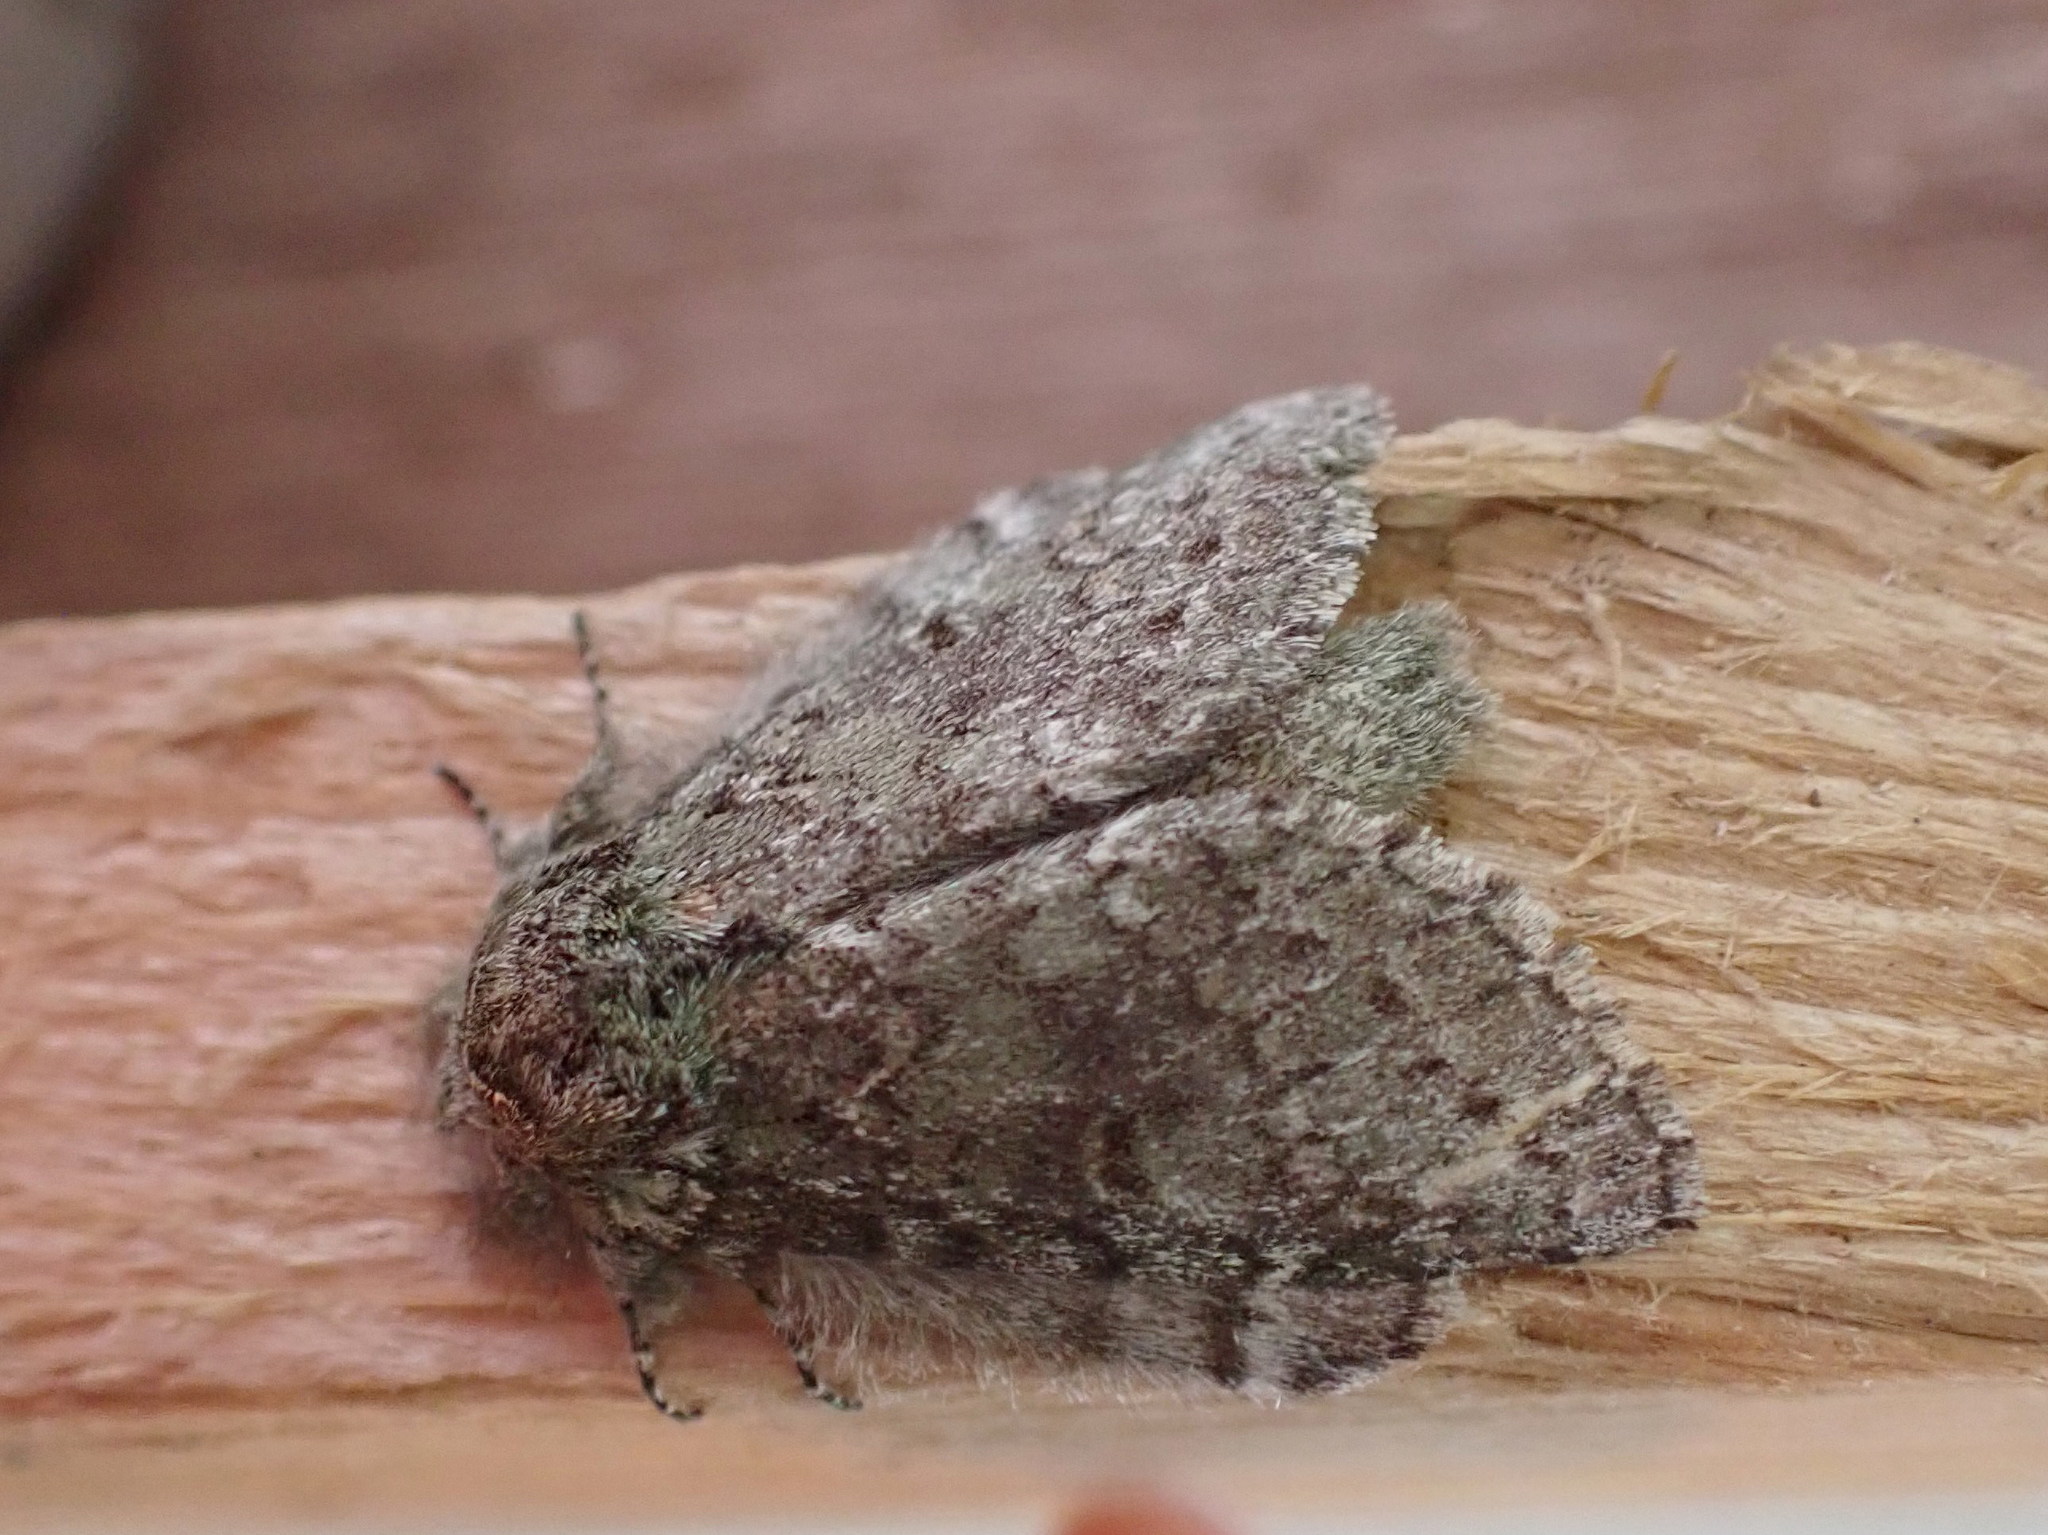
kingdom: Animalia
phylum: Arthropoda
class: Insecta
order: Lepidoptera
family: Notodontidae
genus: Disphragis
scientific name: Disphragis Cecrita guttivitta
